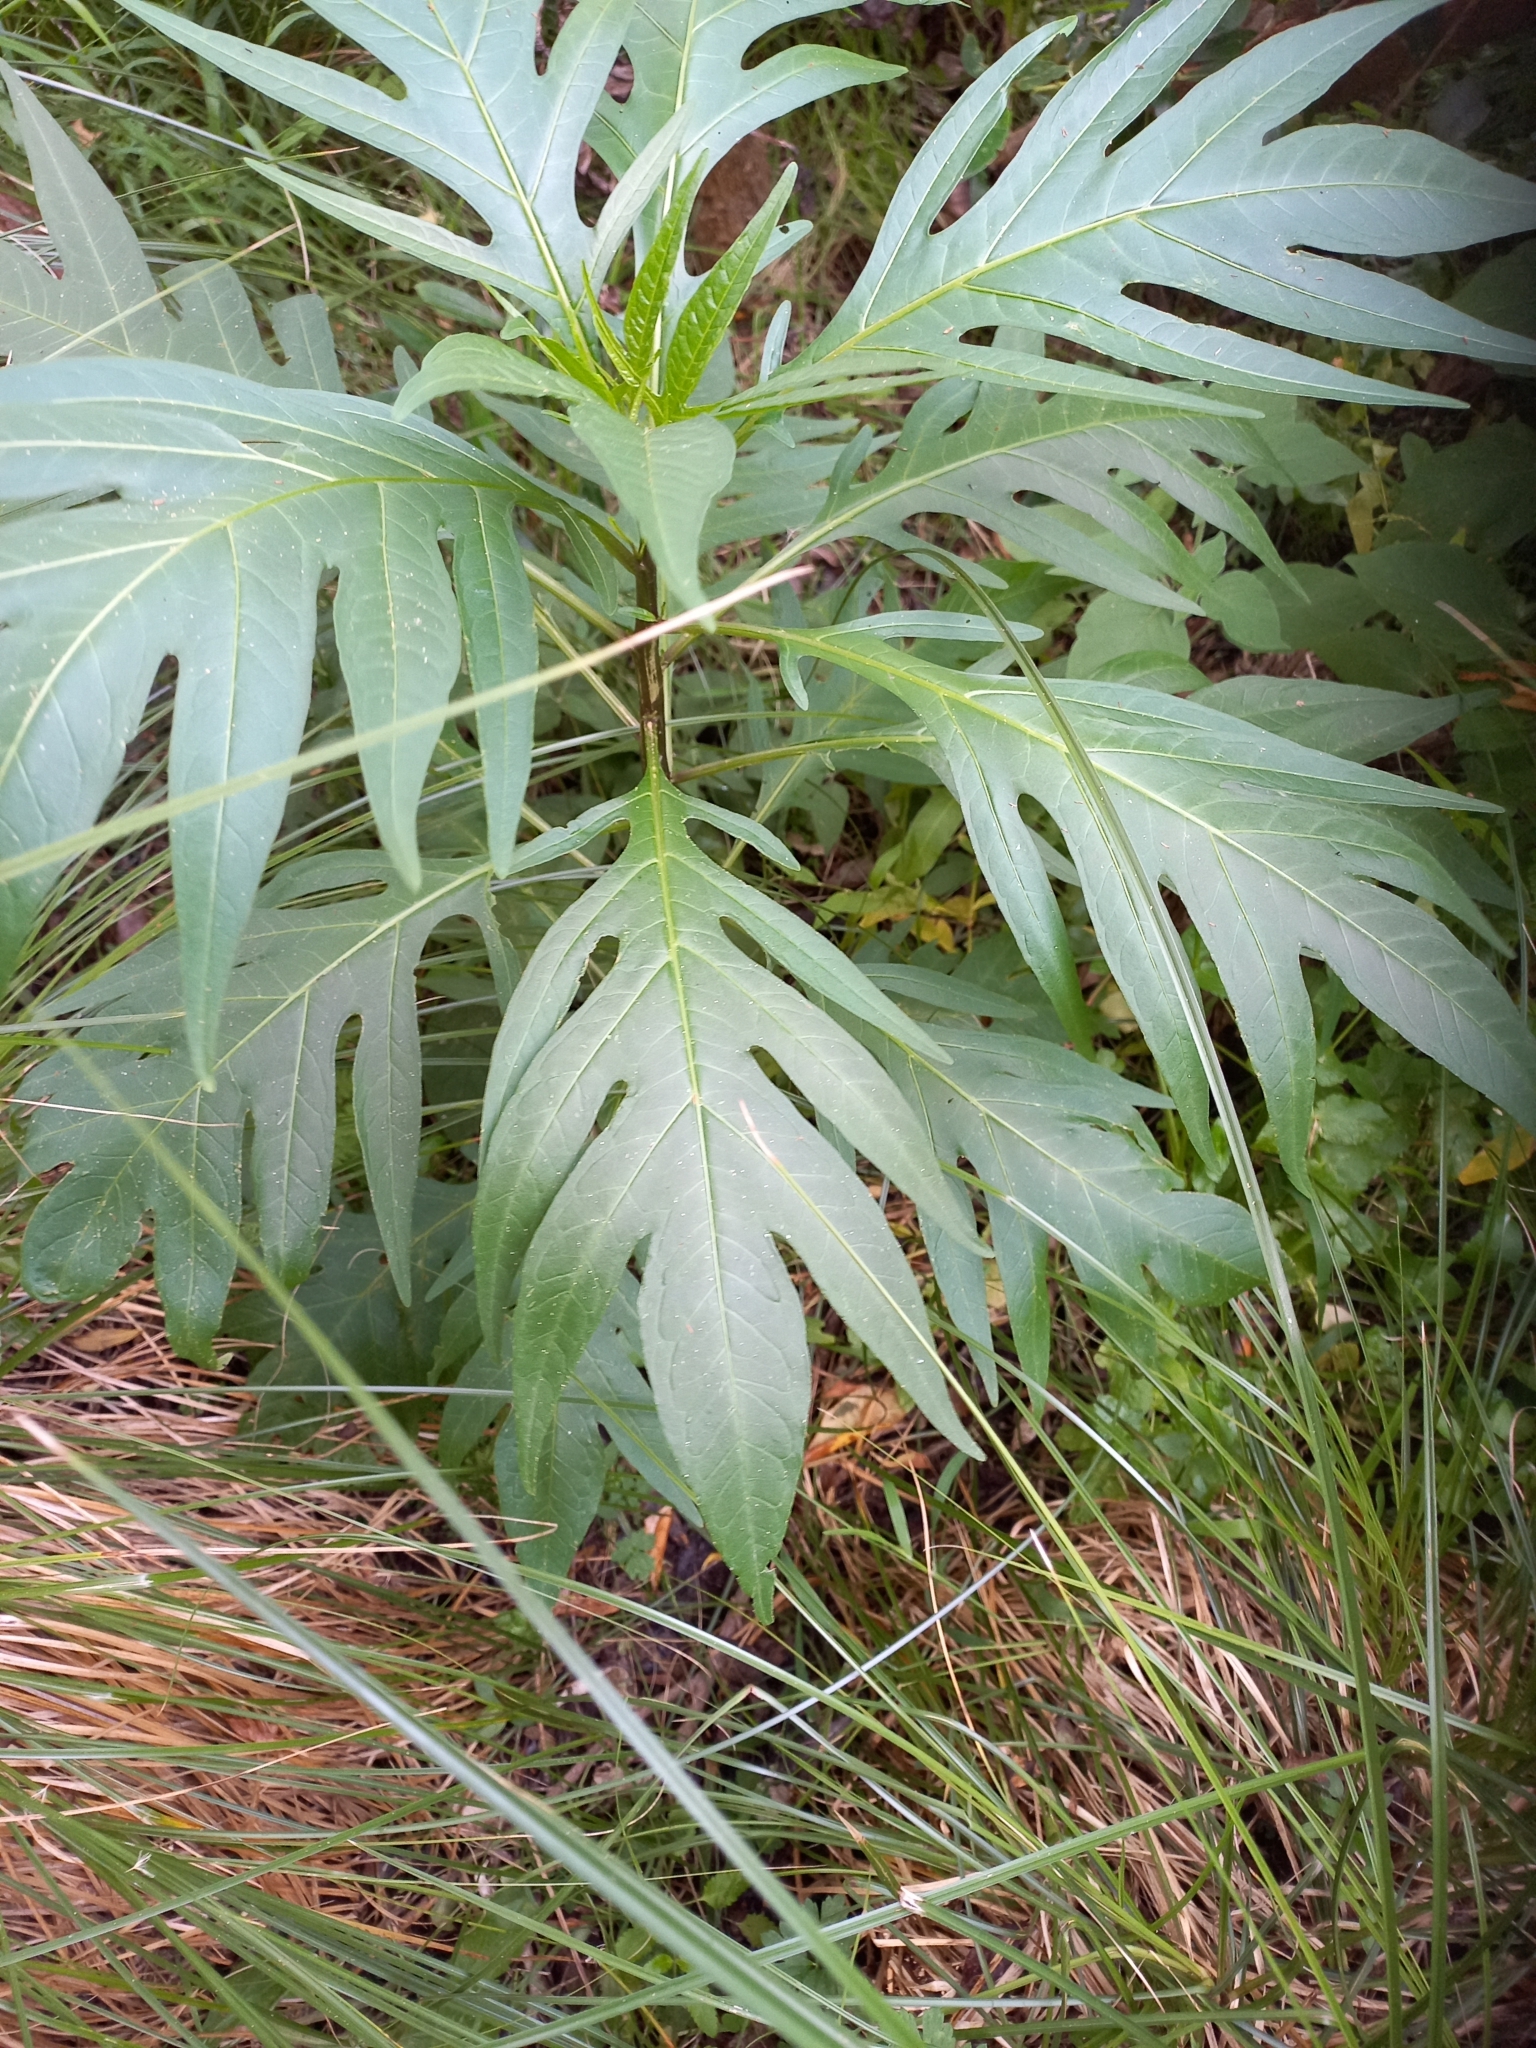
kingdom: Plantae
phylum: Tracheophyta
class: Magnoliopsida
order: Solanales
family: Solanaceae
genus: Solanum
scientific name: Solanum
